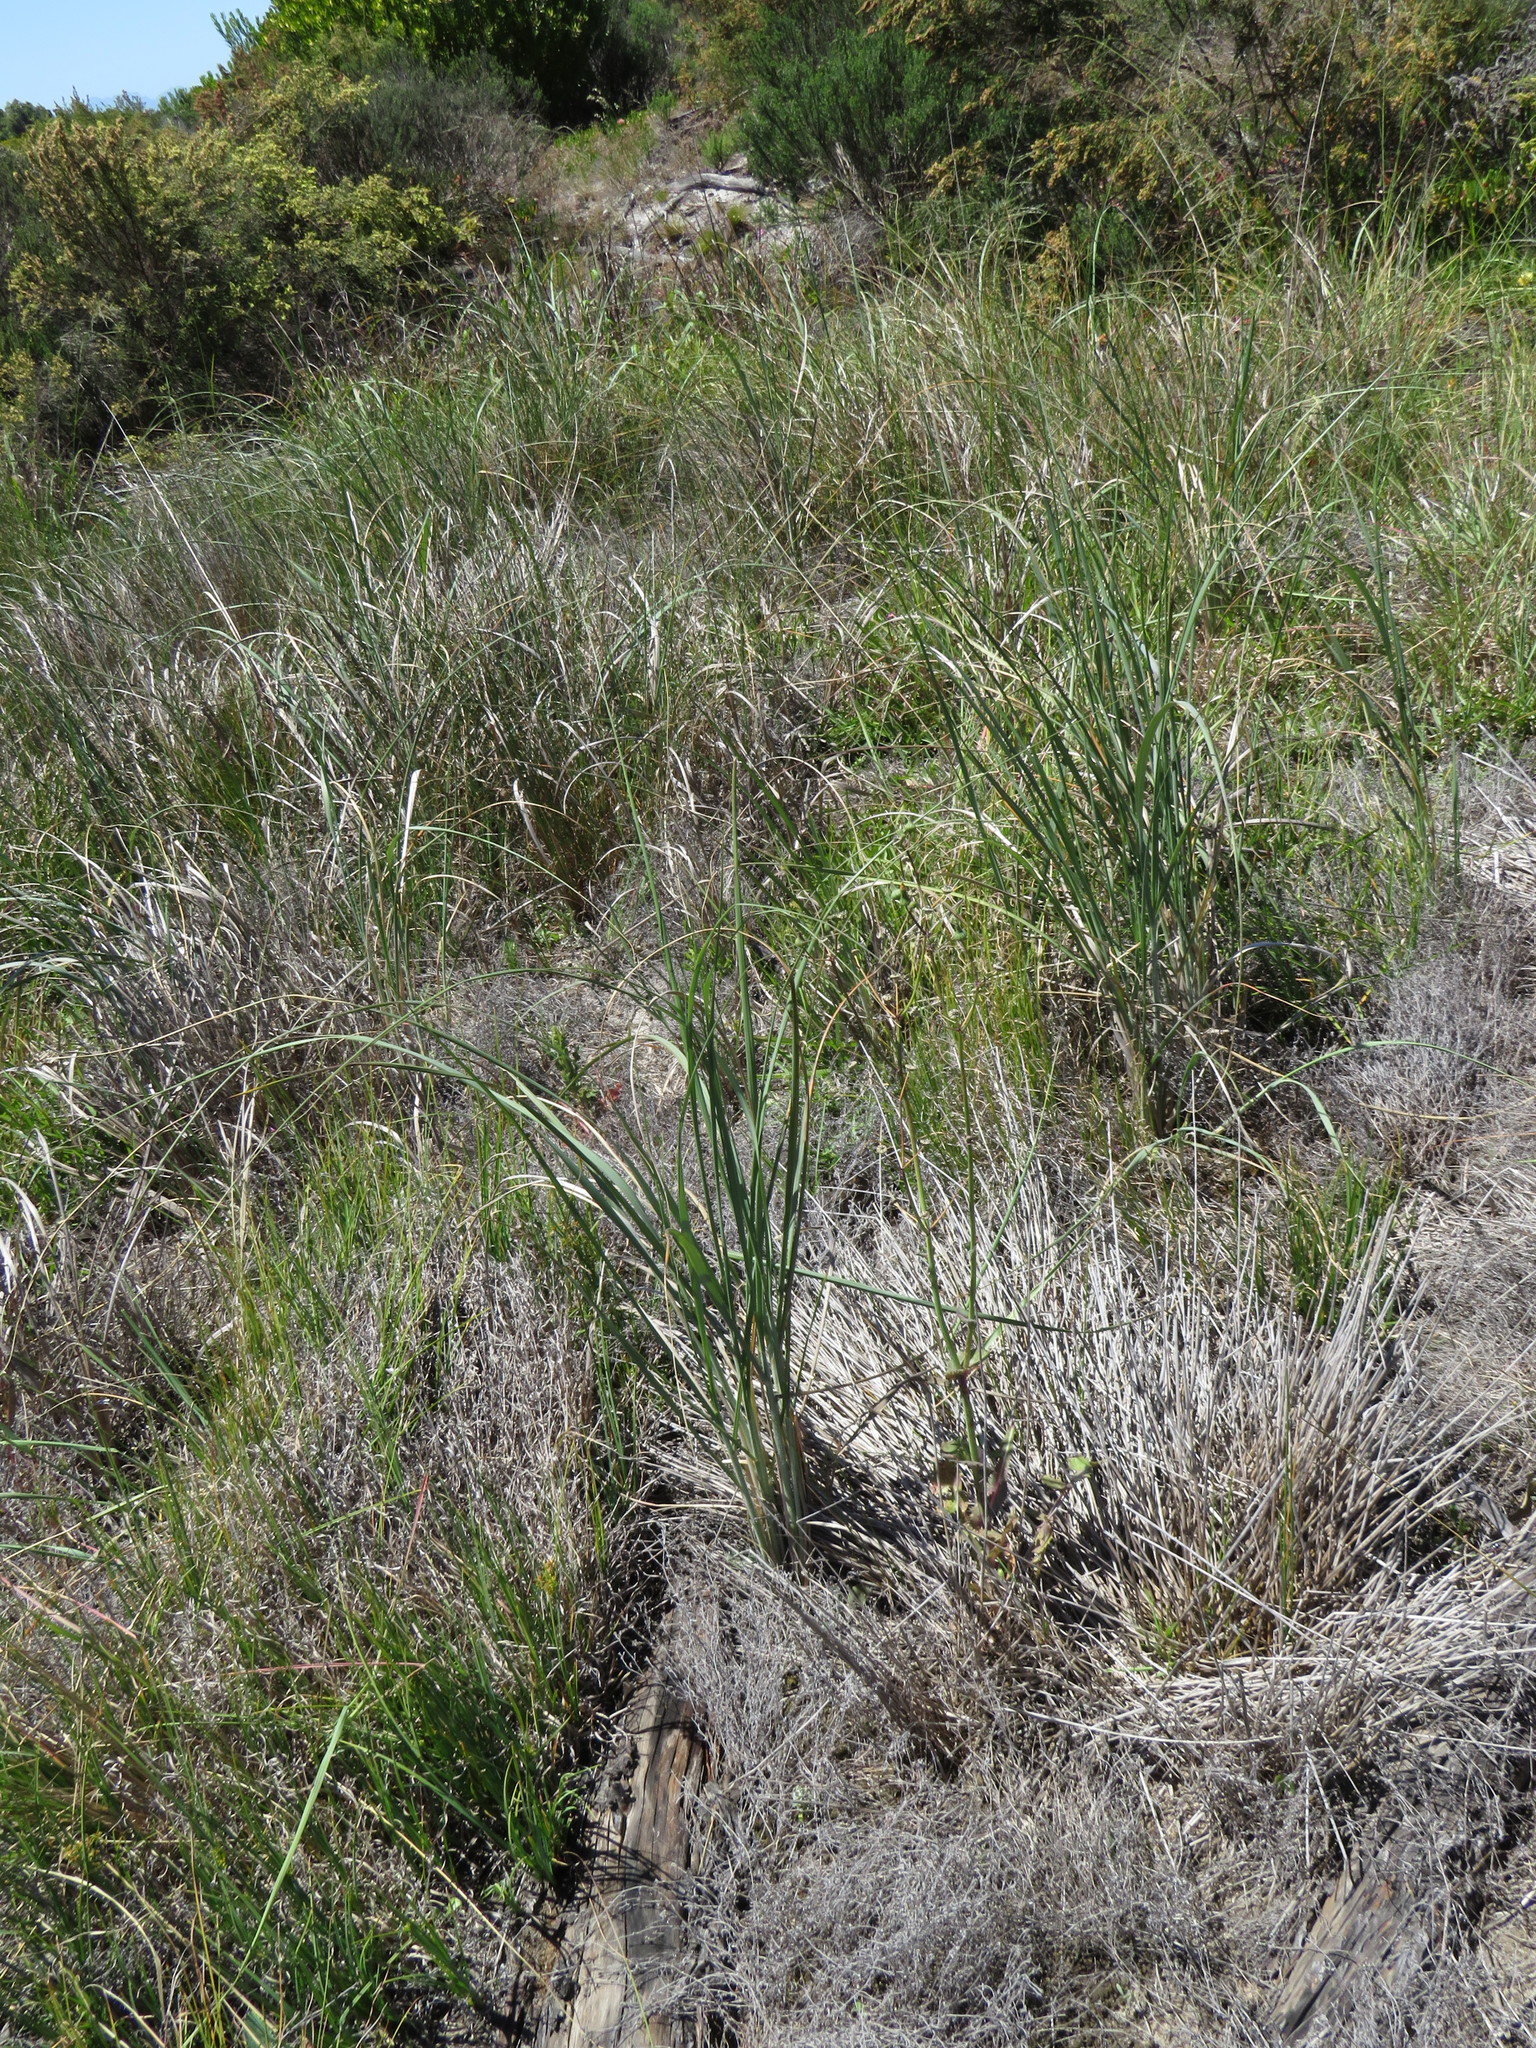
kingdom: Plantae
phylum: Tracheophyta
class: Magnoliopsida
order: Asterales
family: Asteraceae
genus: Sonchus
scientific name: Sonchus oleraceus
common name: Common sowthistle
